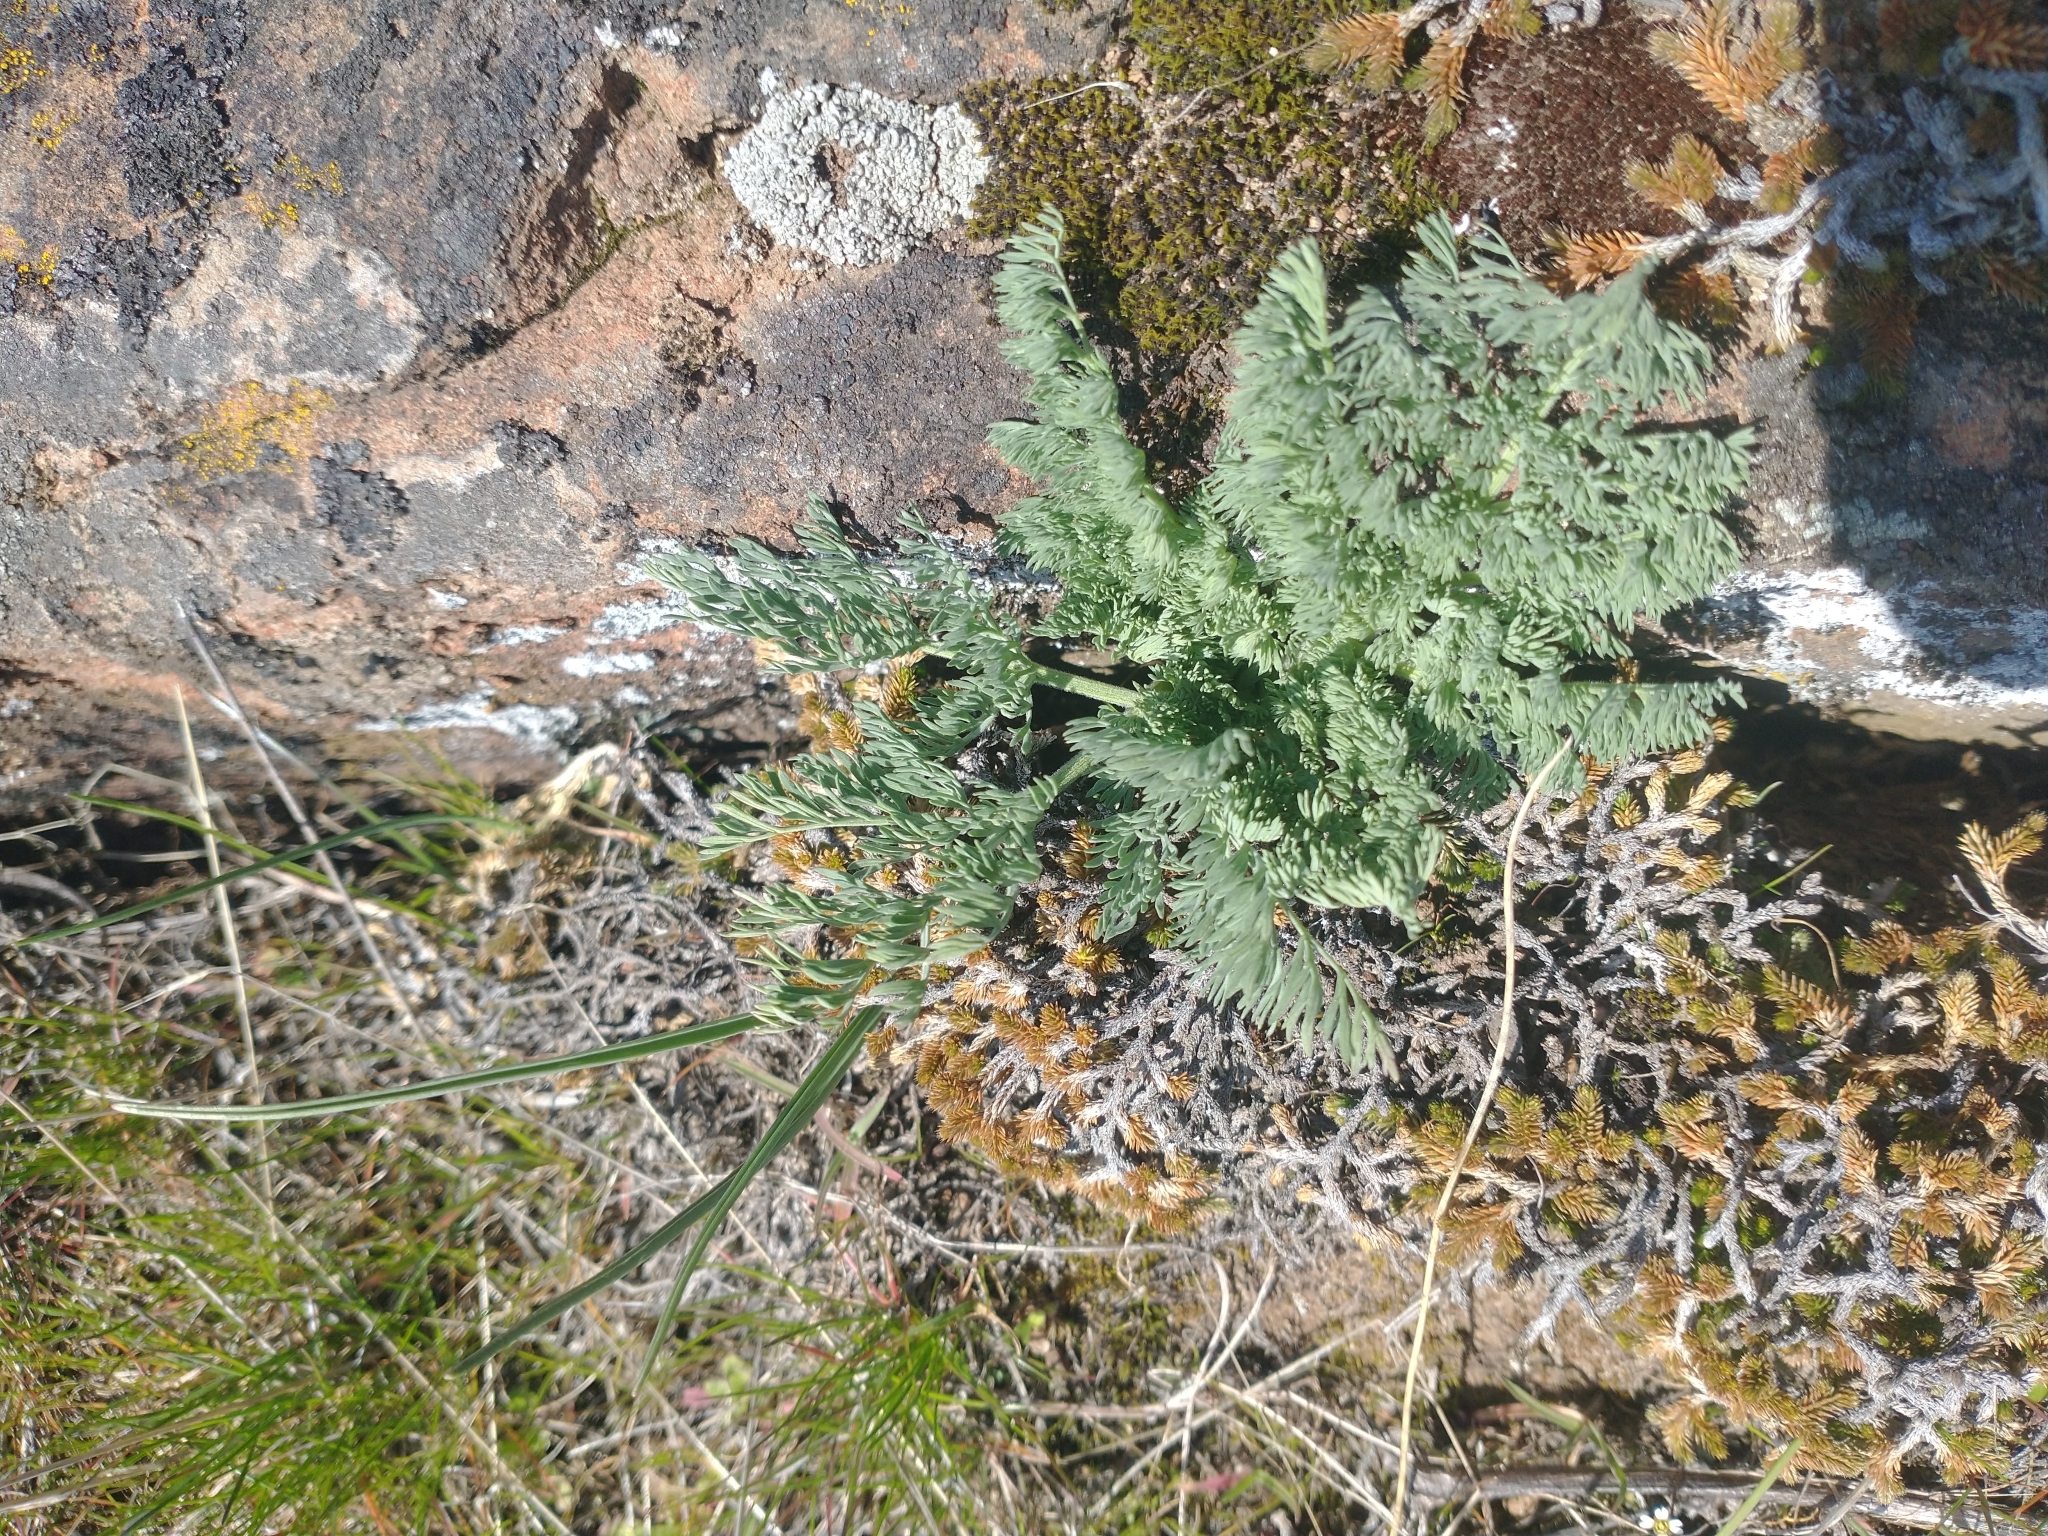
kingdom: Plantae
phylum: Tracheophyta
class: Magnoliopsida
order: Apiales
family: Apiaceae
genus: Lomatium
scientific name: Lomatium macrocarpum
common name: Big-seed biscuitroot
